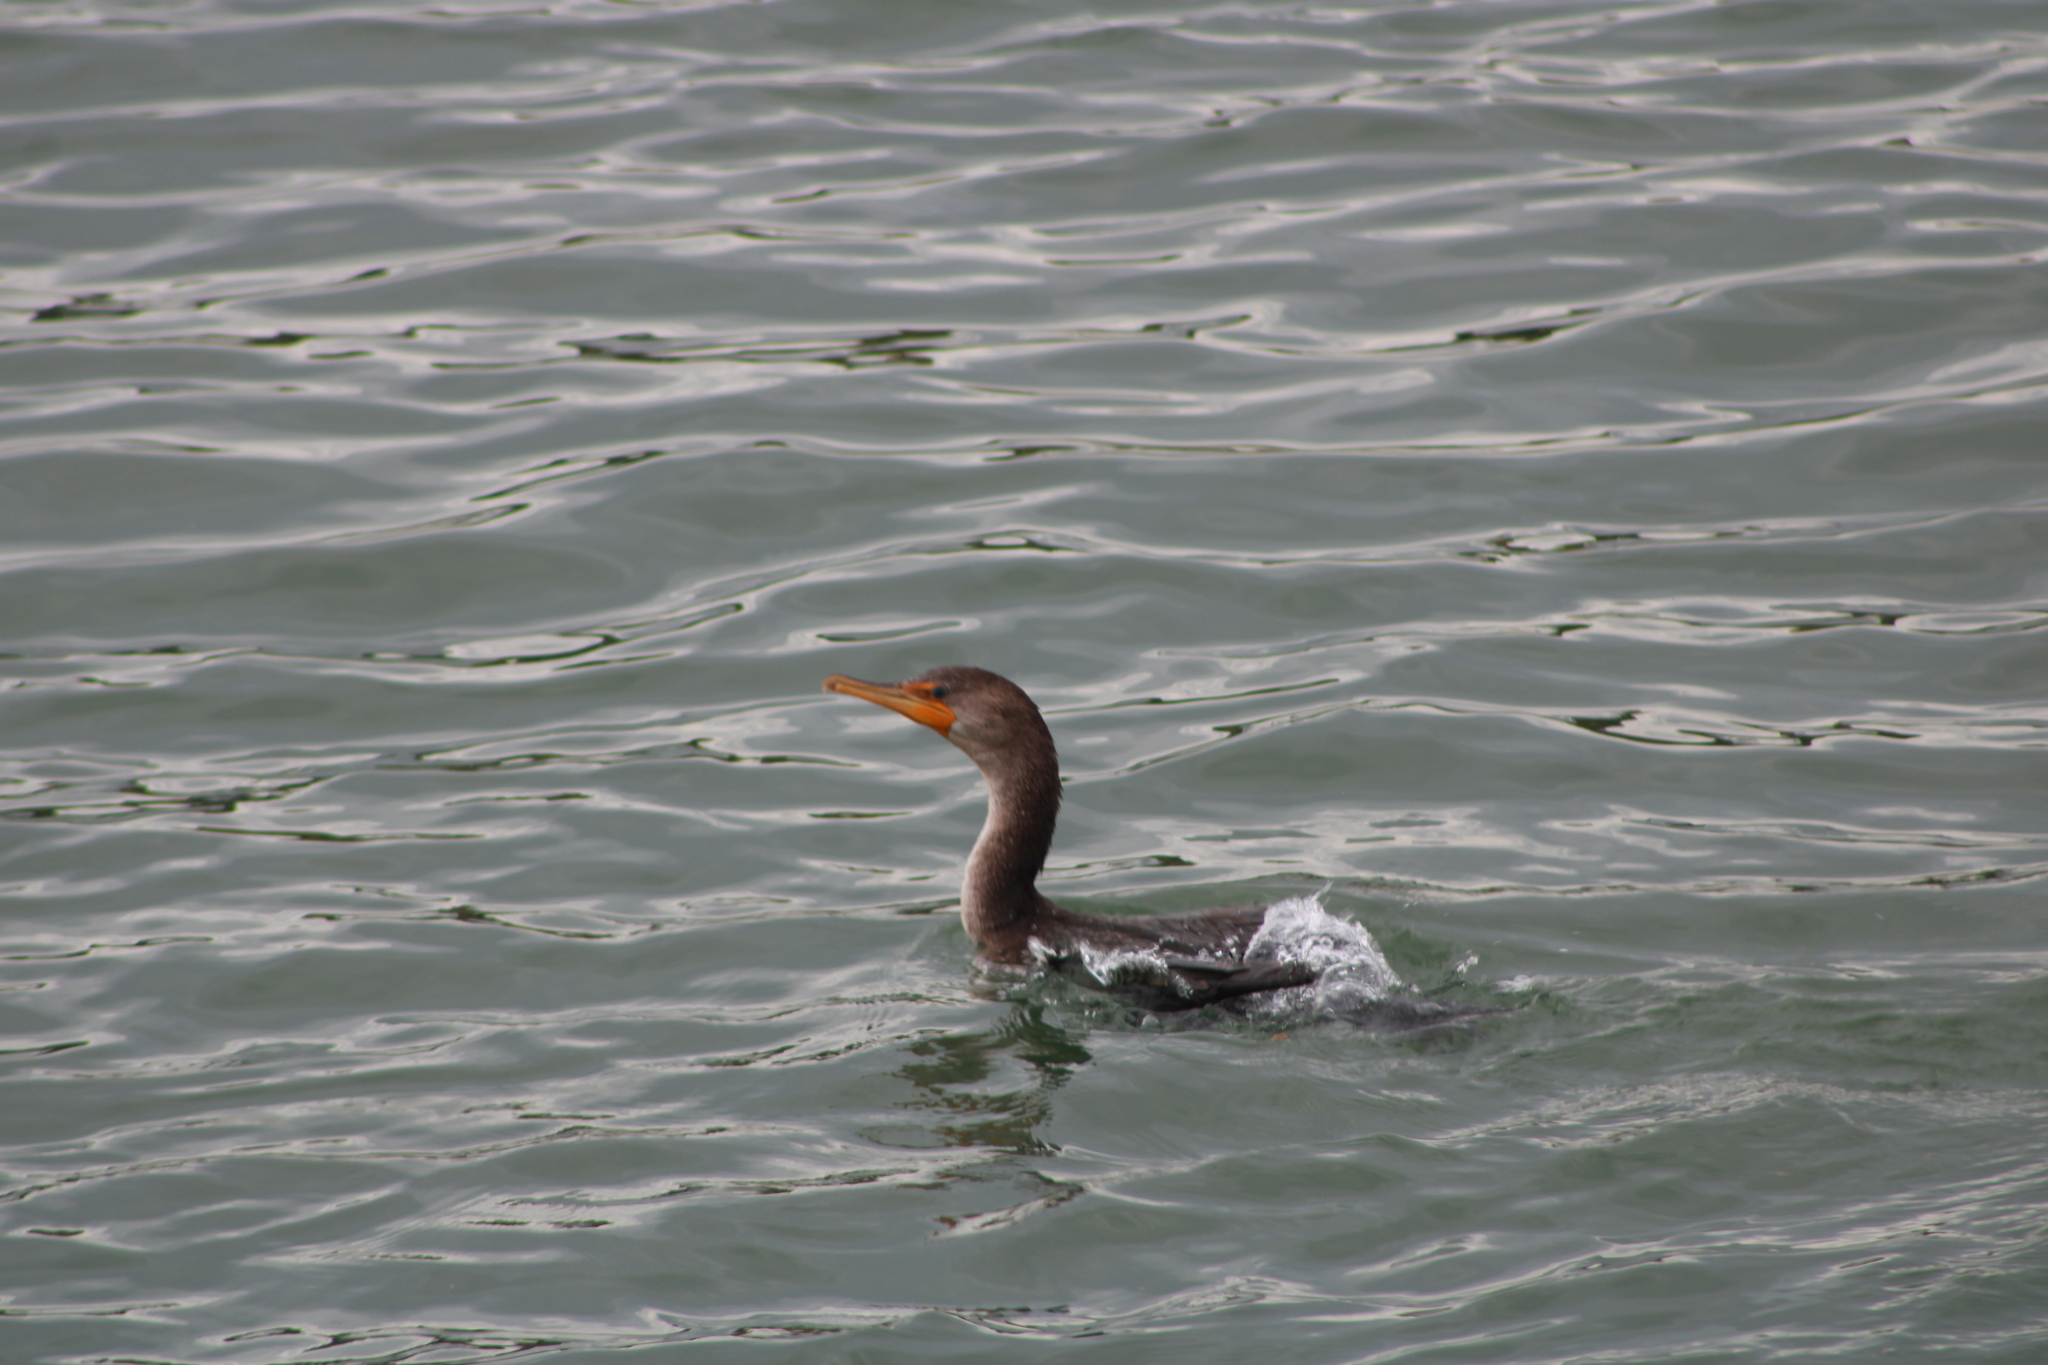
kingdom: Animalia
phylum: Chordata
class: Aves
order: Suliformes
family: Phalacrocoracidae
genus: Phalacrocorax
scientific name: Phalacrocorax auritus
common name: Double-crested cormorant
